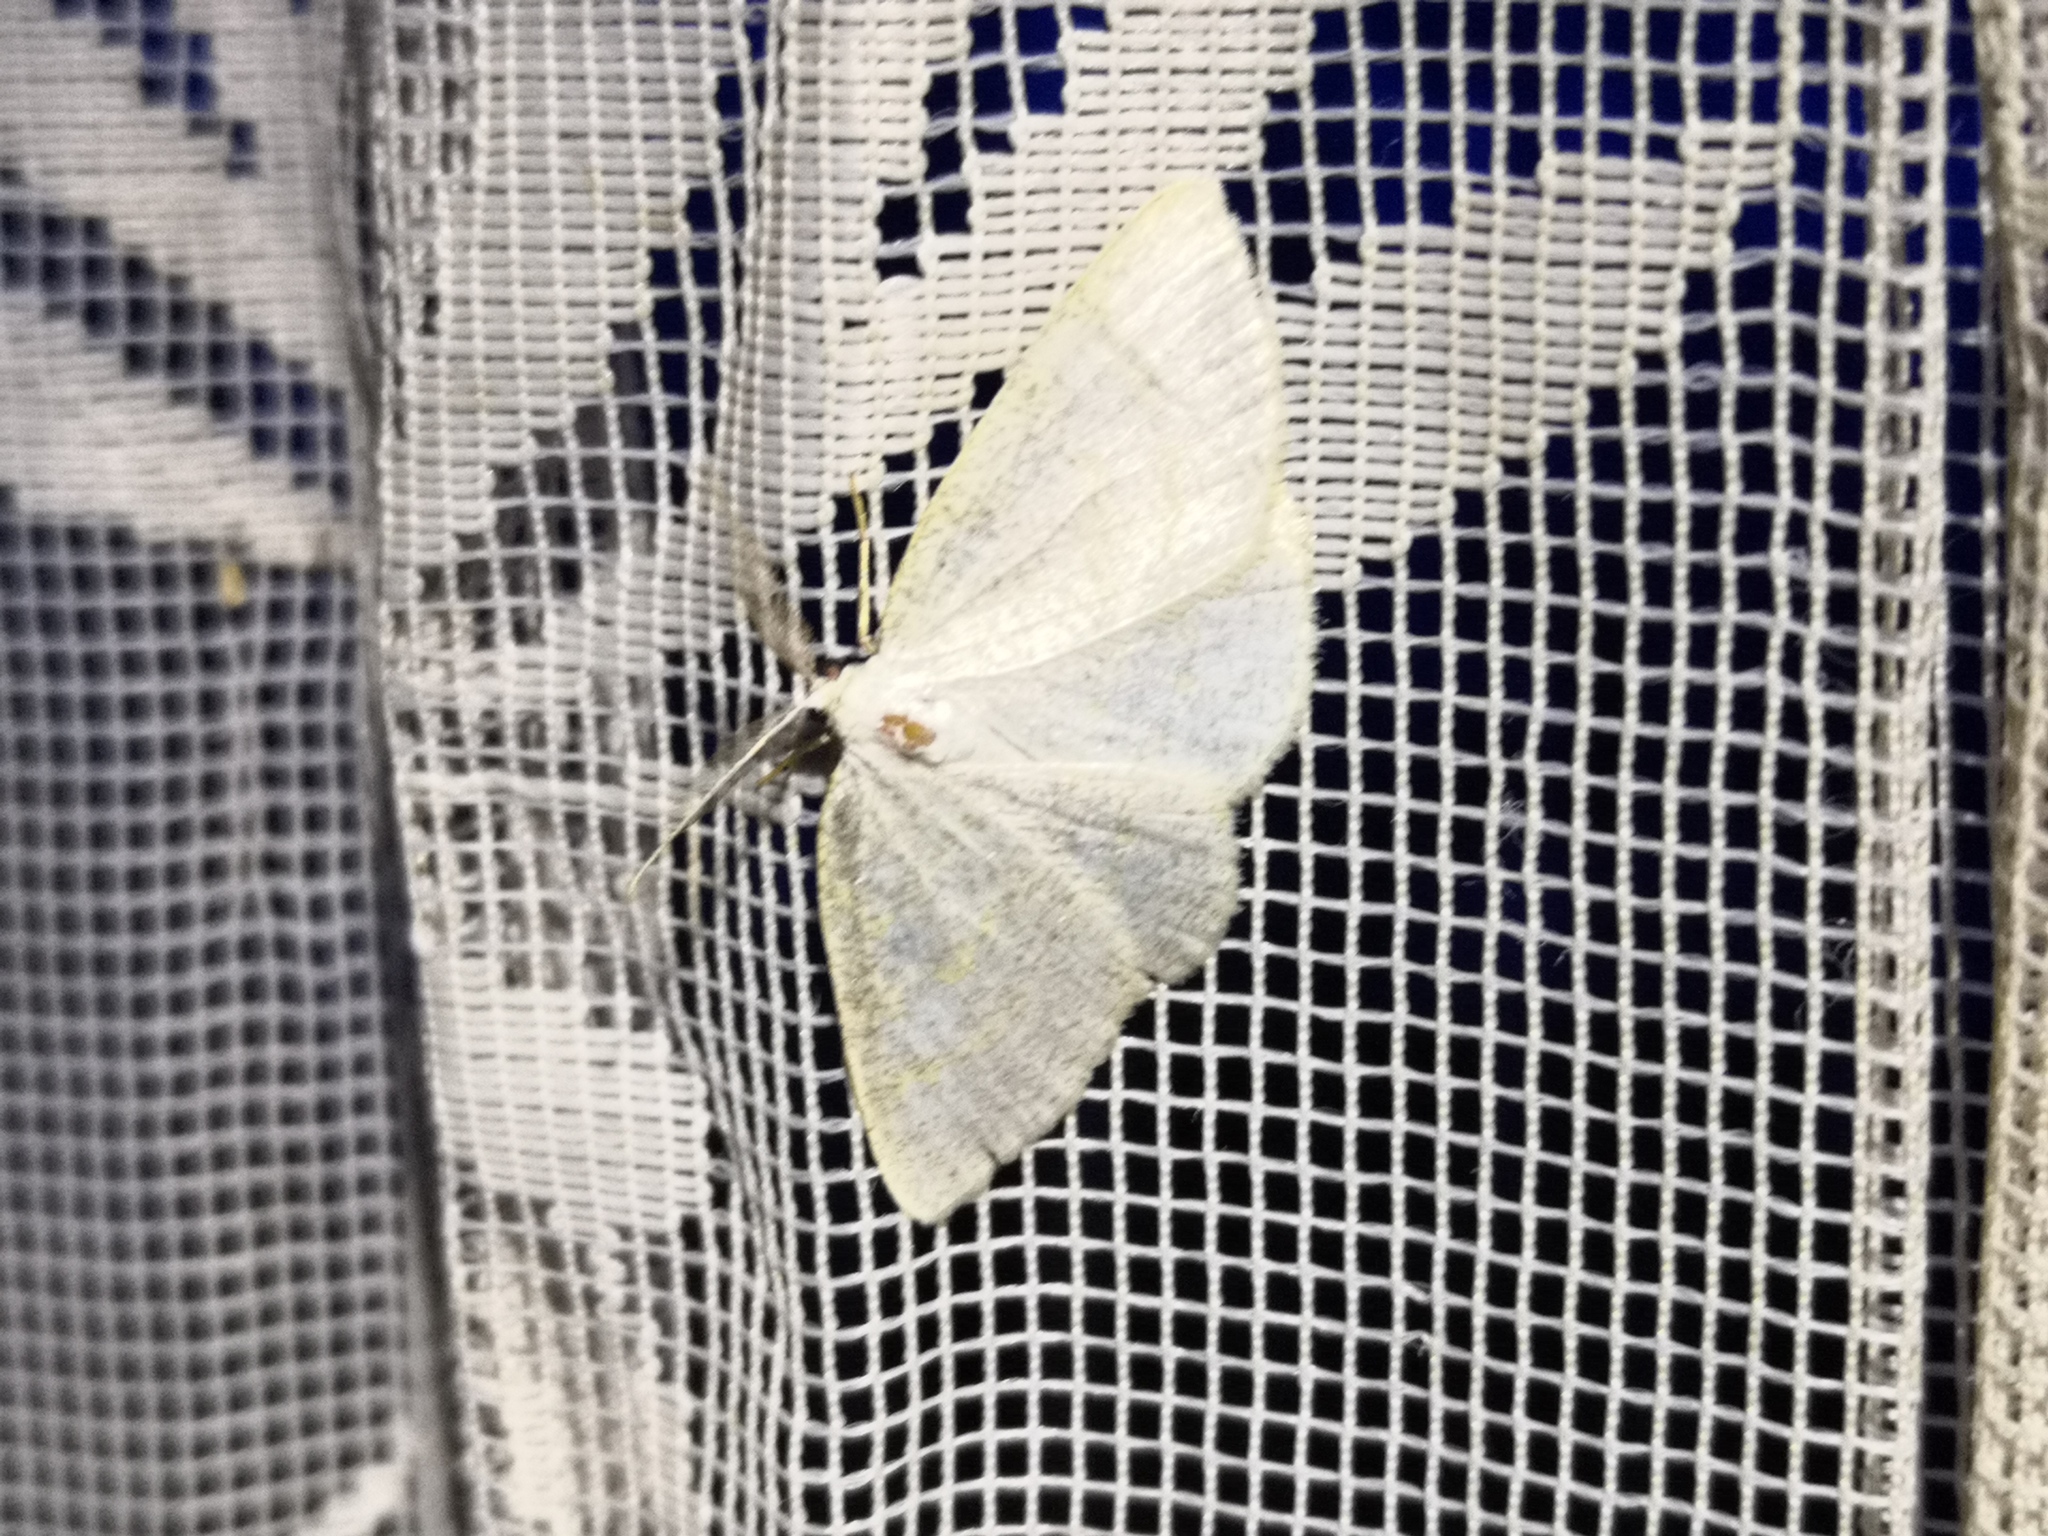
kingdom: Animalia
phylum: Arthropoda
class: Insecta
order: Lepidoptera
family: Geometridae
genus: Cabera
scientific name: Cabera exanthemata
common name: Common wave
